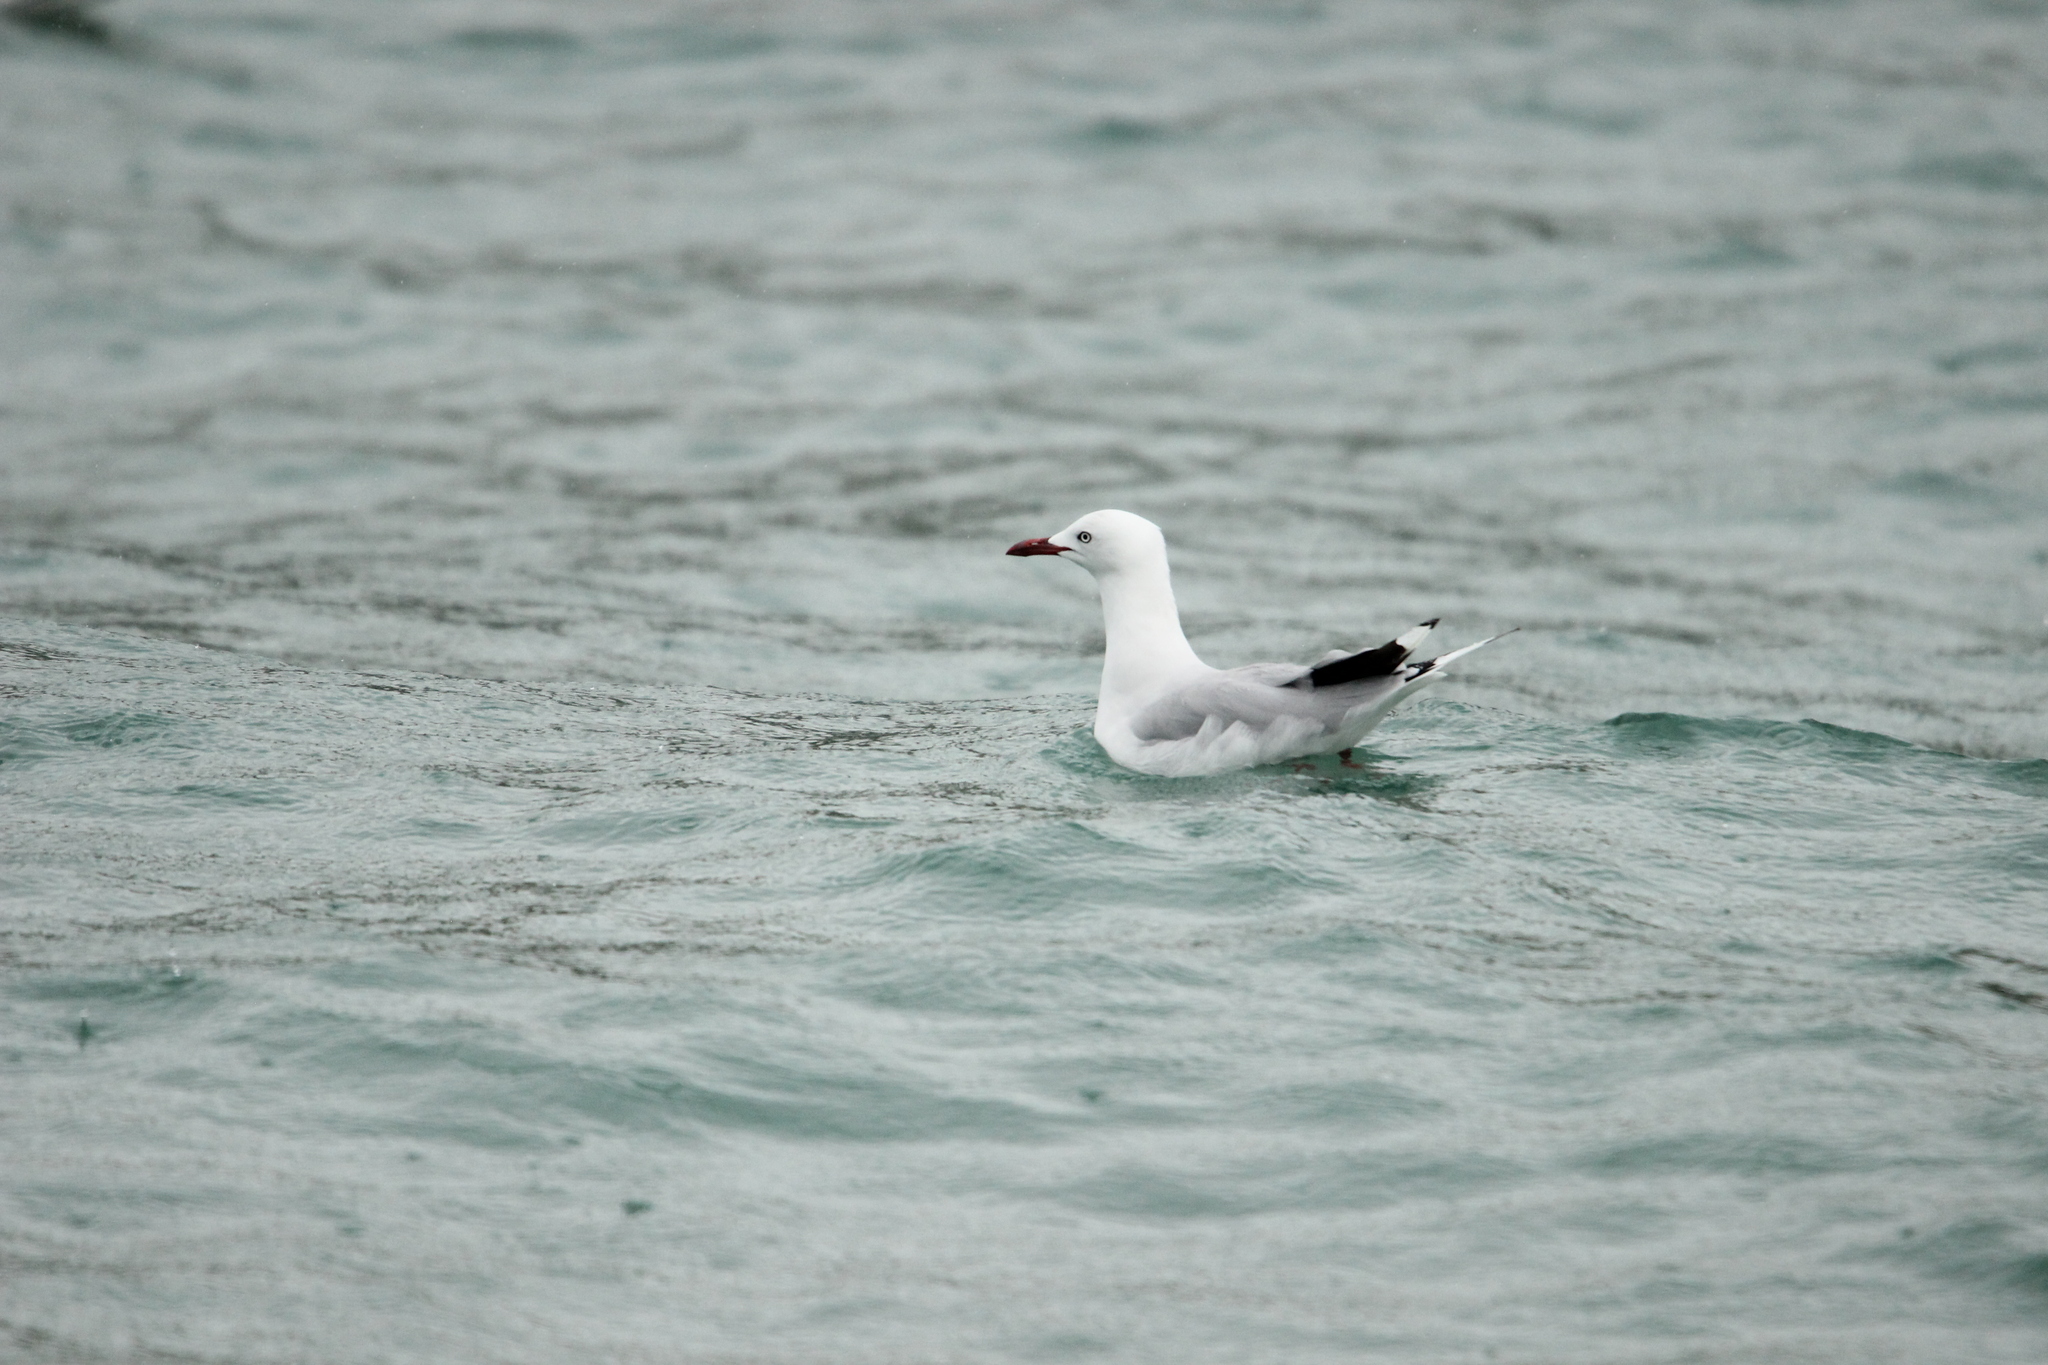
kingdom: Animalia
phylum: Chordata
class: Aves
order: Charadriiformes
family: Laridae
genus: Chroicocephalus
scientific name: Chroicocephalus novaehollandiae
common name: Silver gull
